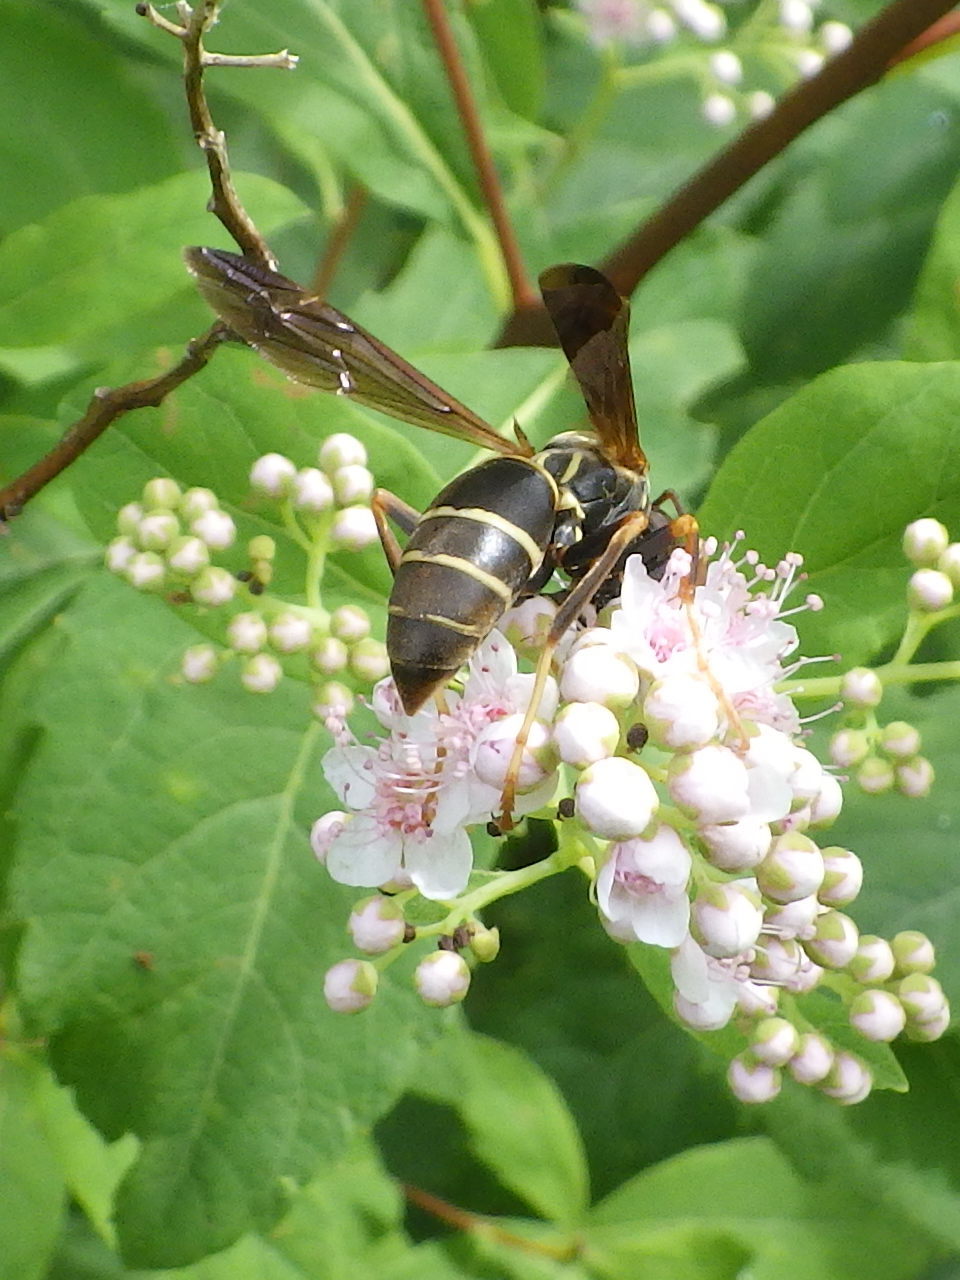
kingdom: Animalia
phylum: Arthropoda
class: Insecta
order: Hymenoptera
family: Eumenidae
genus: Polistes
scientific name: Polistes fuscatus
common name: Dark paper wasp
